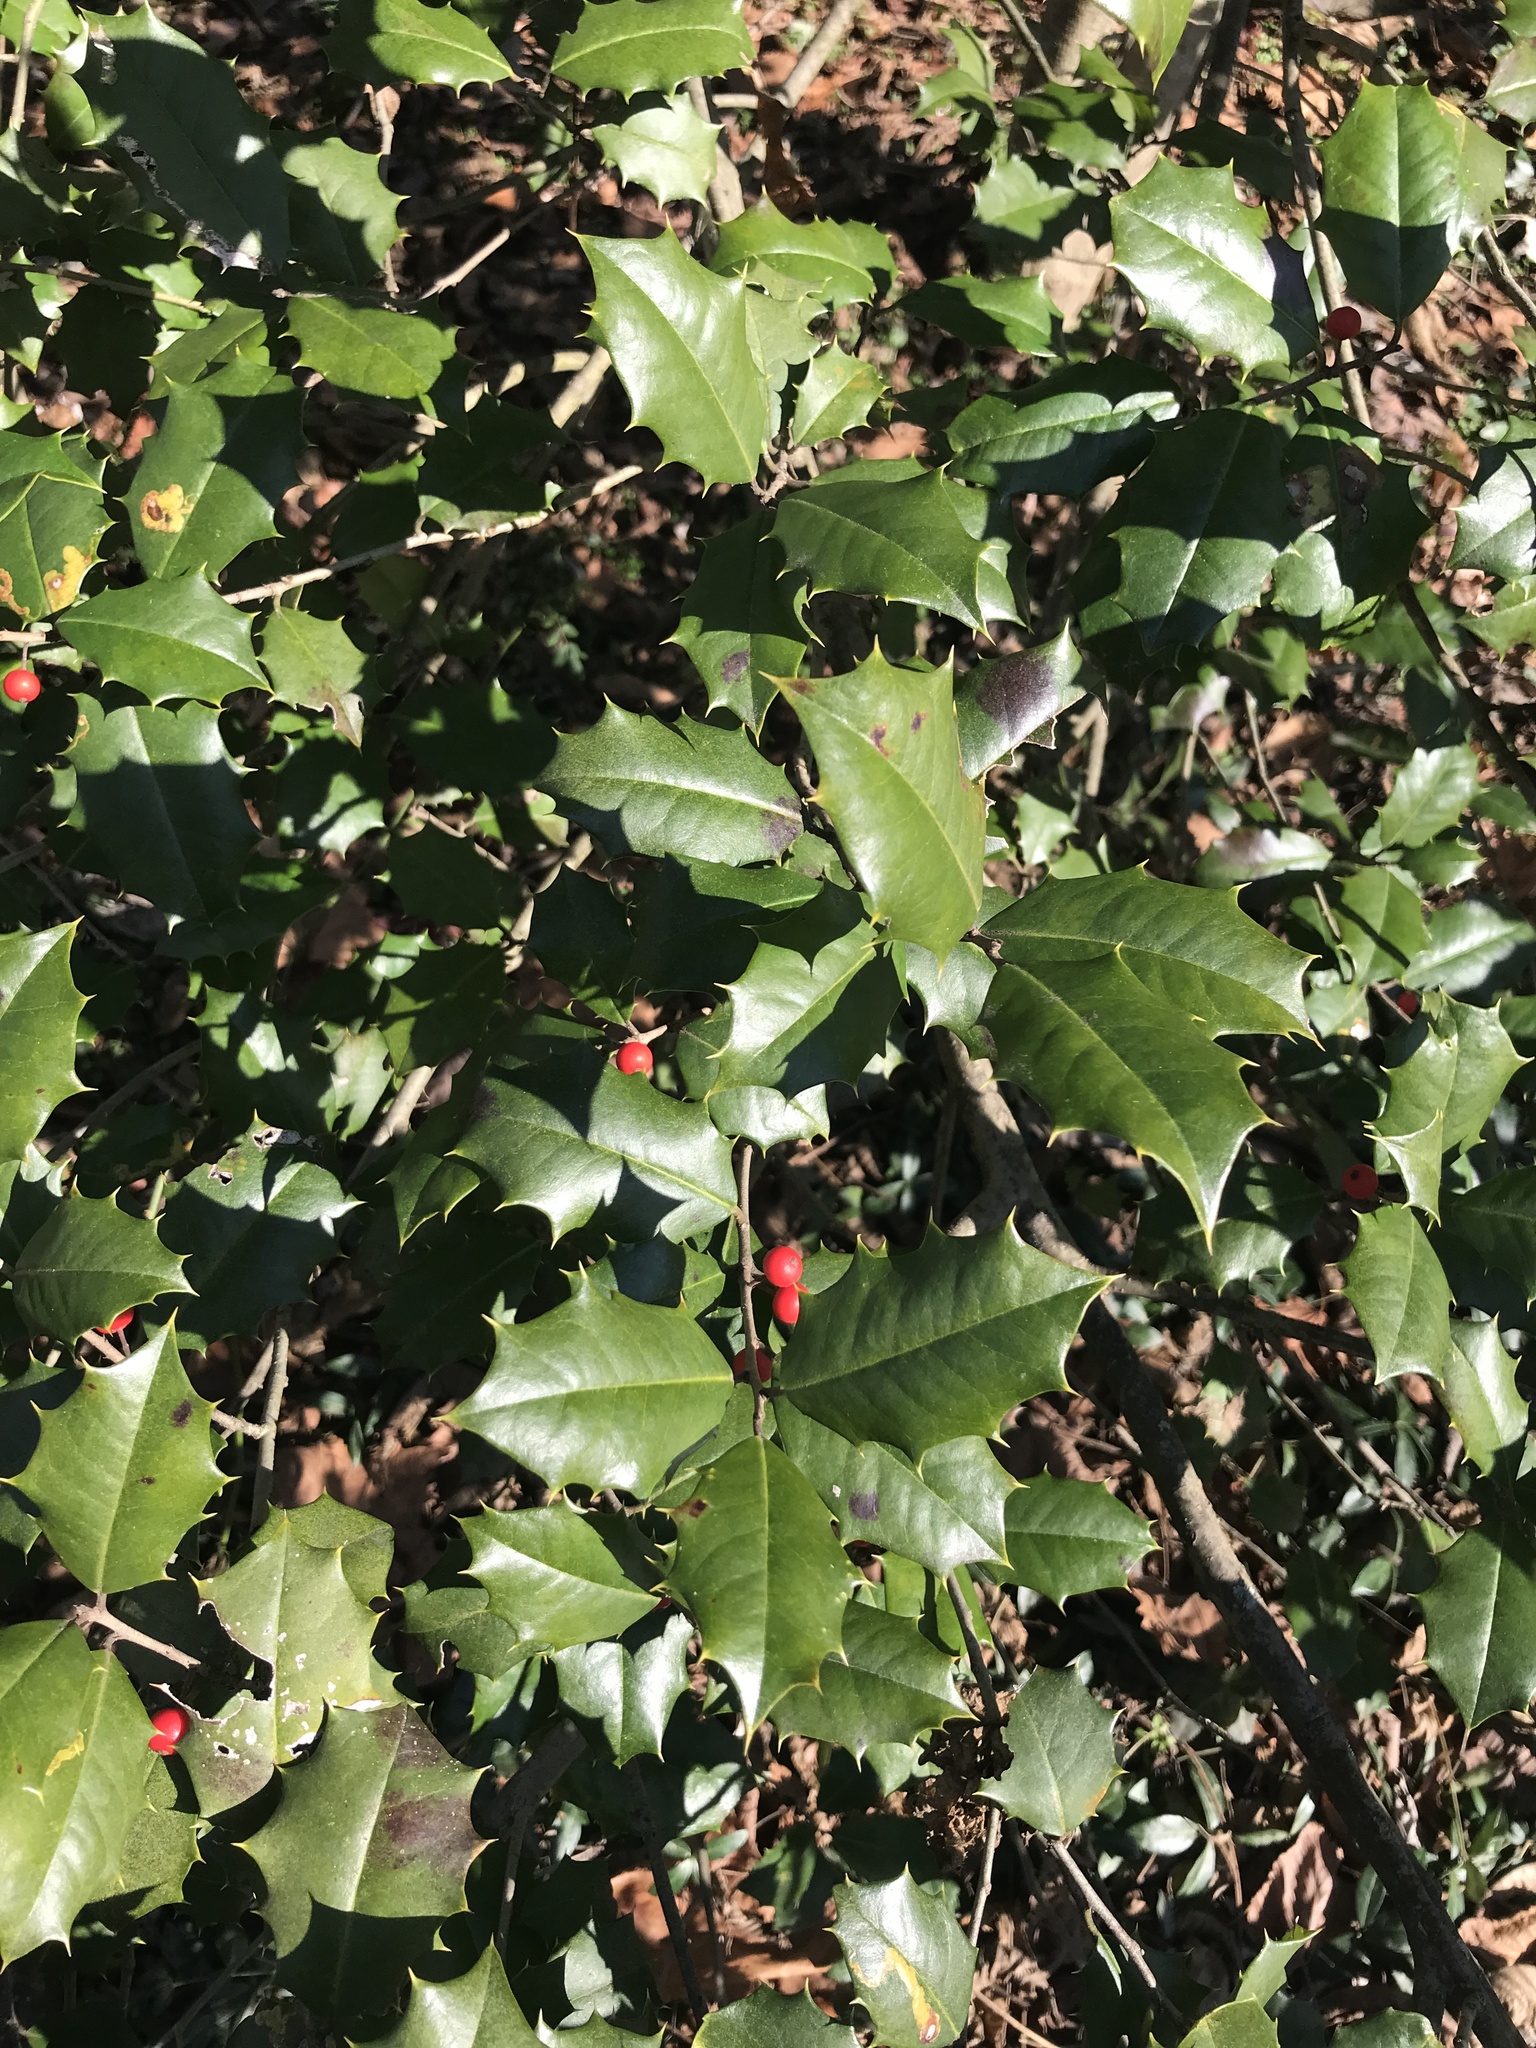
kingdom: Plantae
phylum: Tracheophyta
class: Magnoliopsida
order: Aquifoliales
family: Aquifoliaceae
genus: Ilex
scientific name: Ilex opaca
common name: American holly
